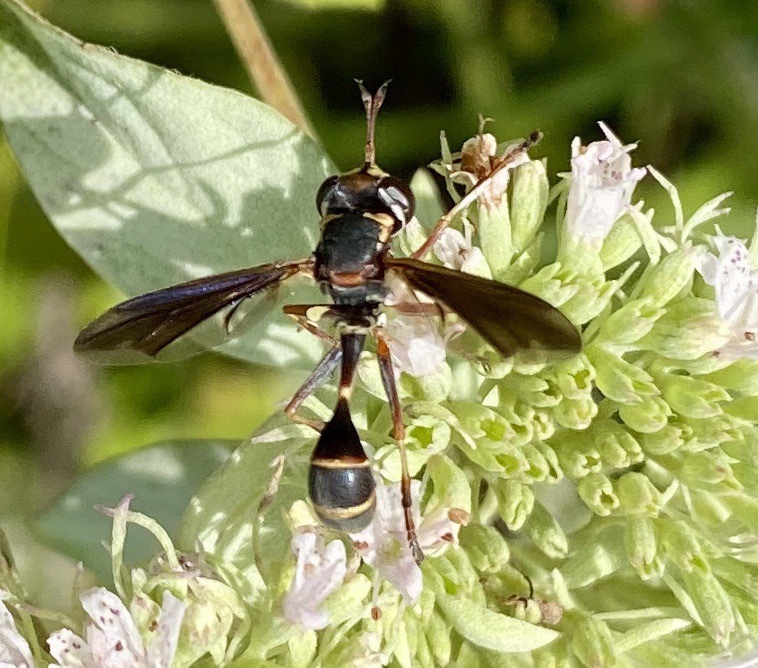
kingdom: Animalia
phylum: Arthropoda
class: Insecta
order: Diptera
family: Conopidae
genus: Physocephala
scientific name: Physocephala sagittaria
